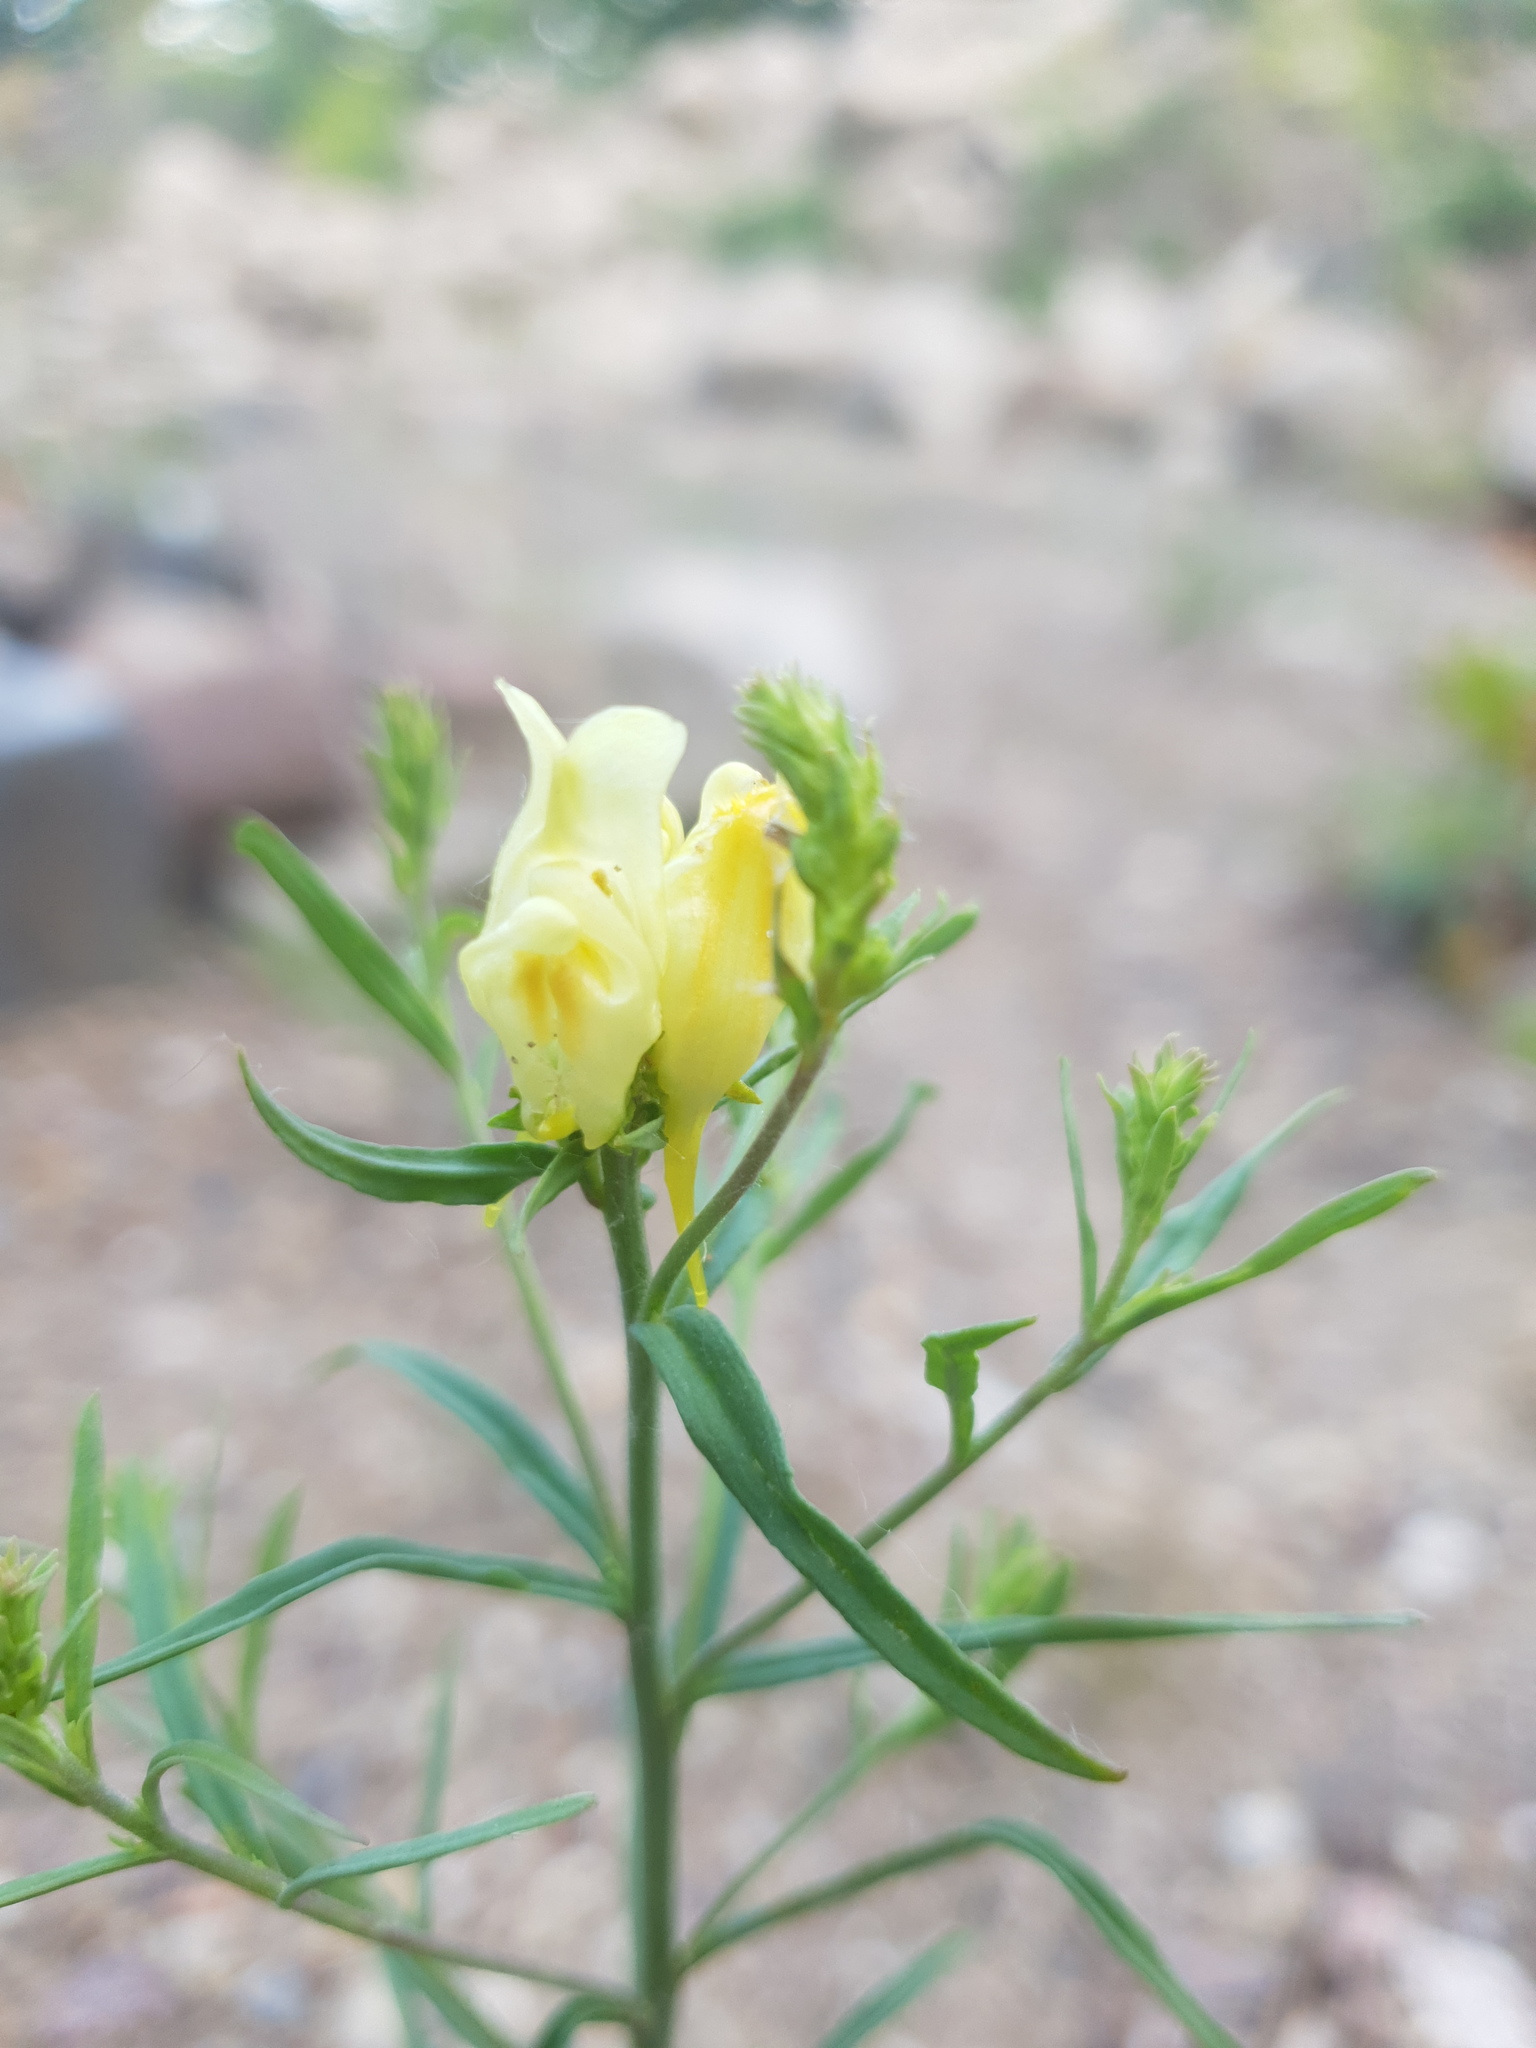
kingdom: Plantae
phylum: Tracheophyta
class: Magnoliopsida
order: Lamiales
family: Plantaginaceae
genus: Linaria
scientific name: Linaria vulgaris
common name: Butter and eggs
